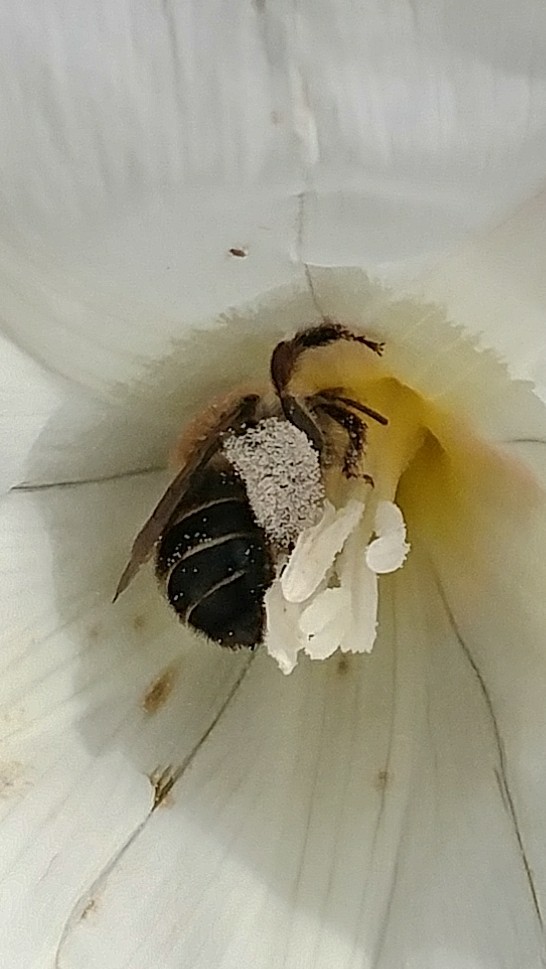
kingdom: Animalia
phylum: Arthropoda
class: Insecta
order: Hymenoptera
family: Apidae
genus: Diadasia
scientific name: Diadasia bituberculata
